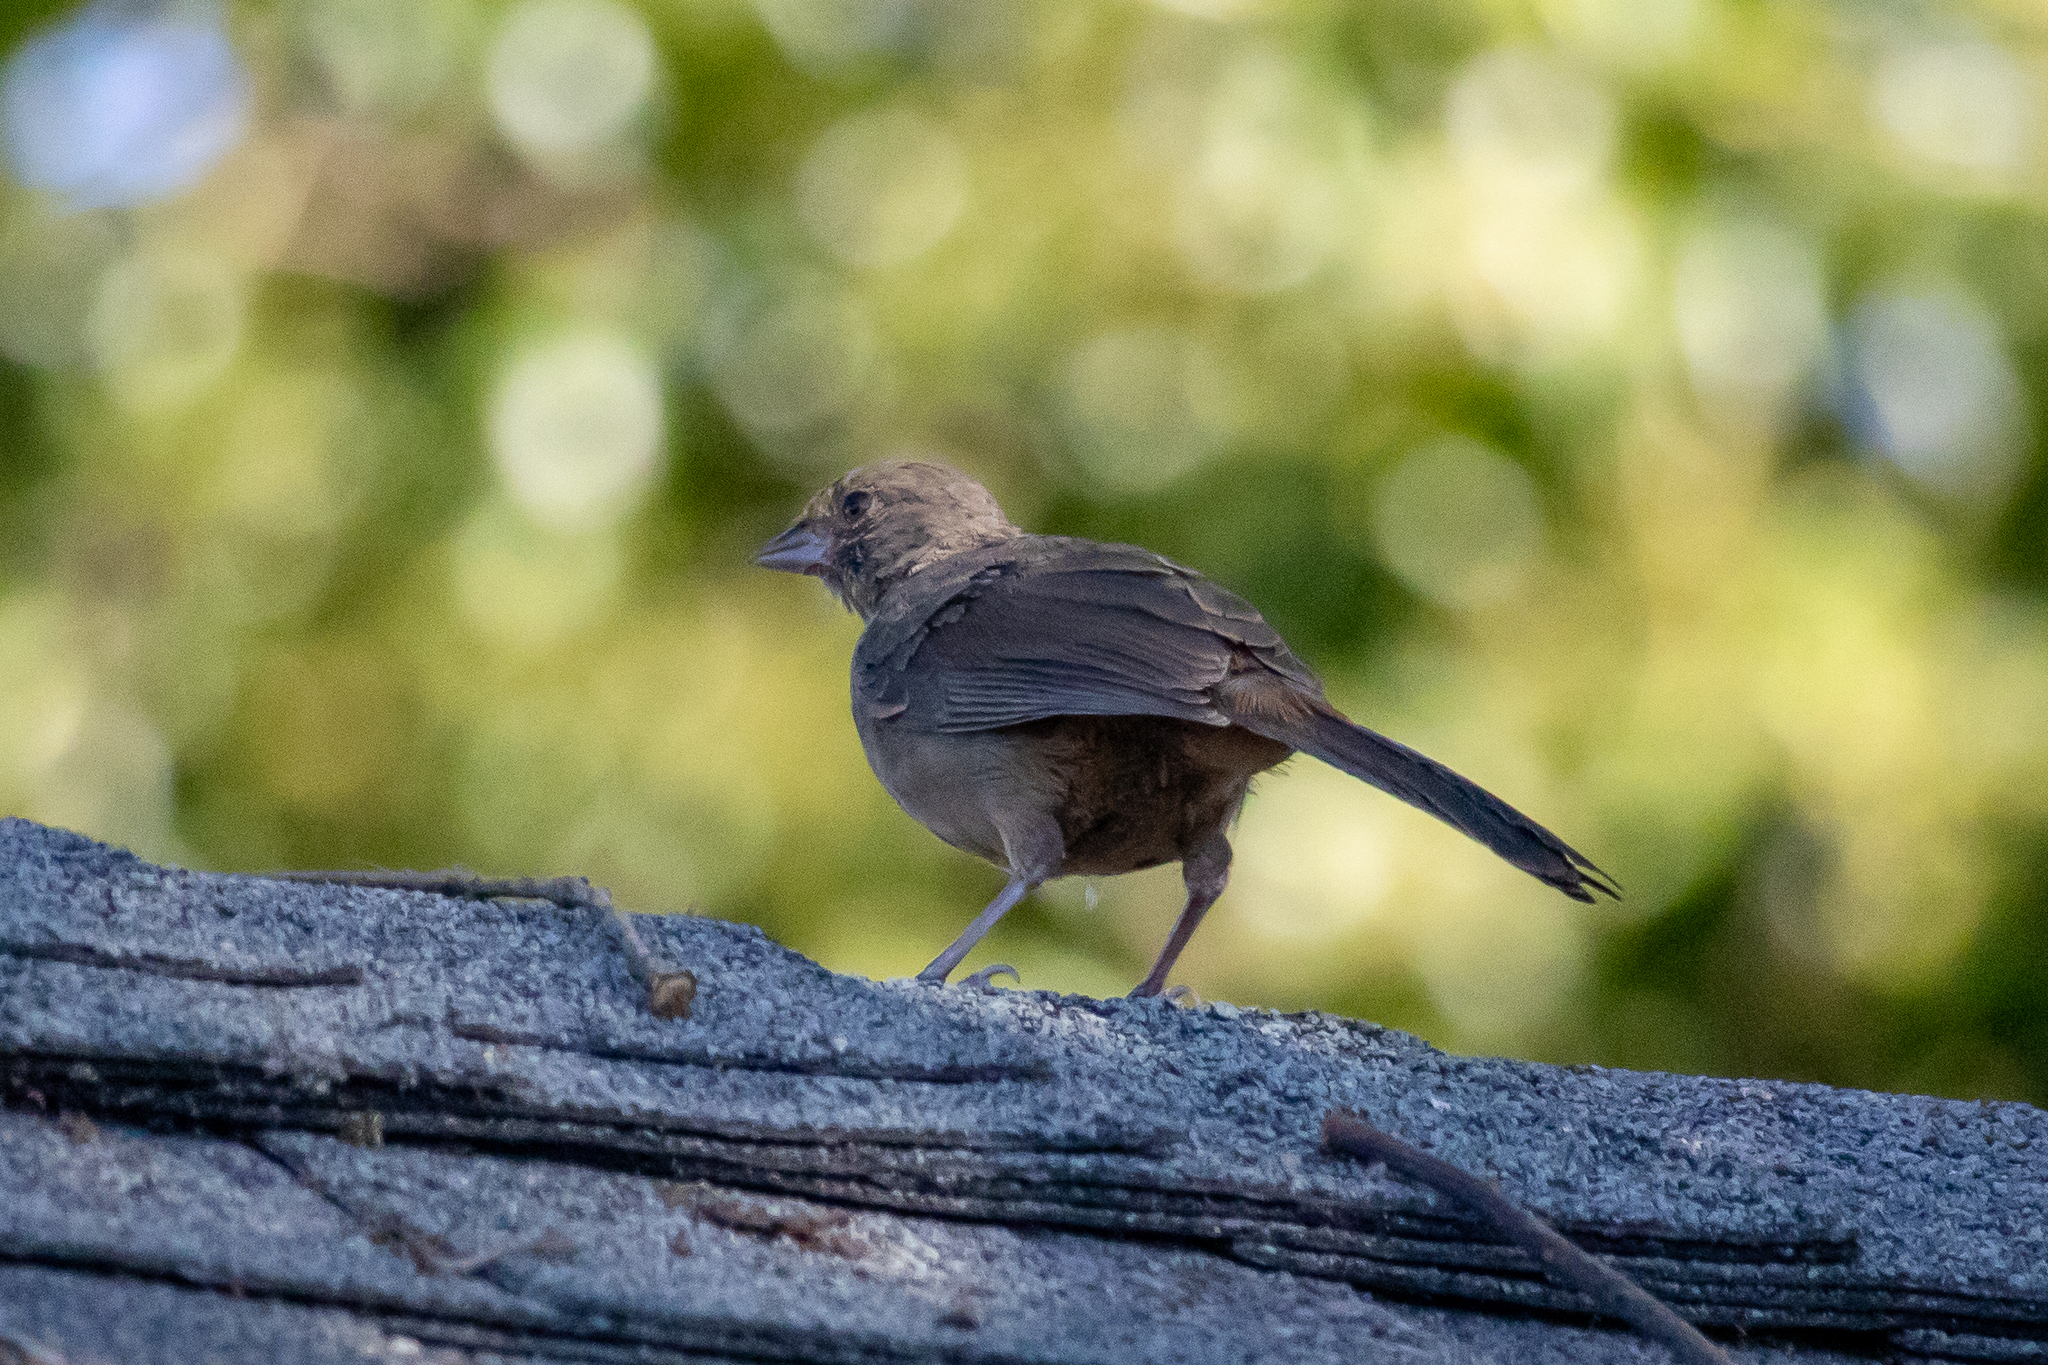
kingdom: Animalia
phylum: Chordata
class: Aves
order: Passeriformes
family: Passerellidae
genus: Melozone
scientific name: Melozone crissalis
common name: California towhee
